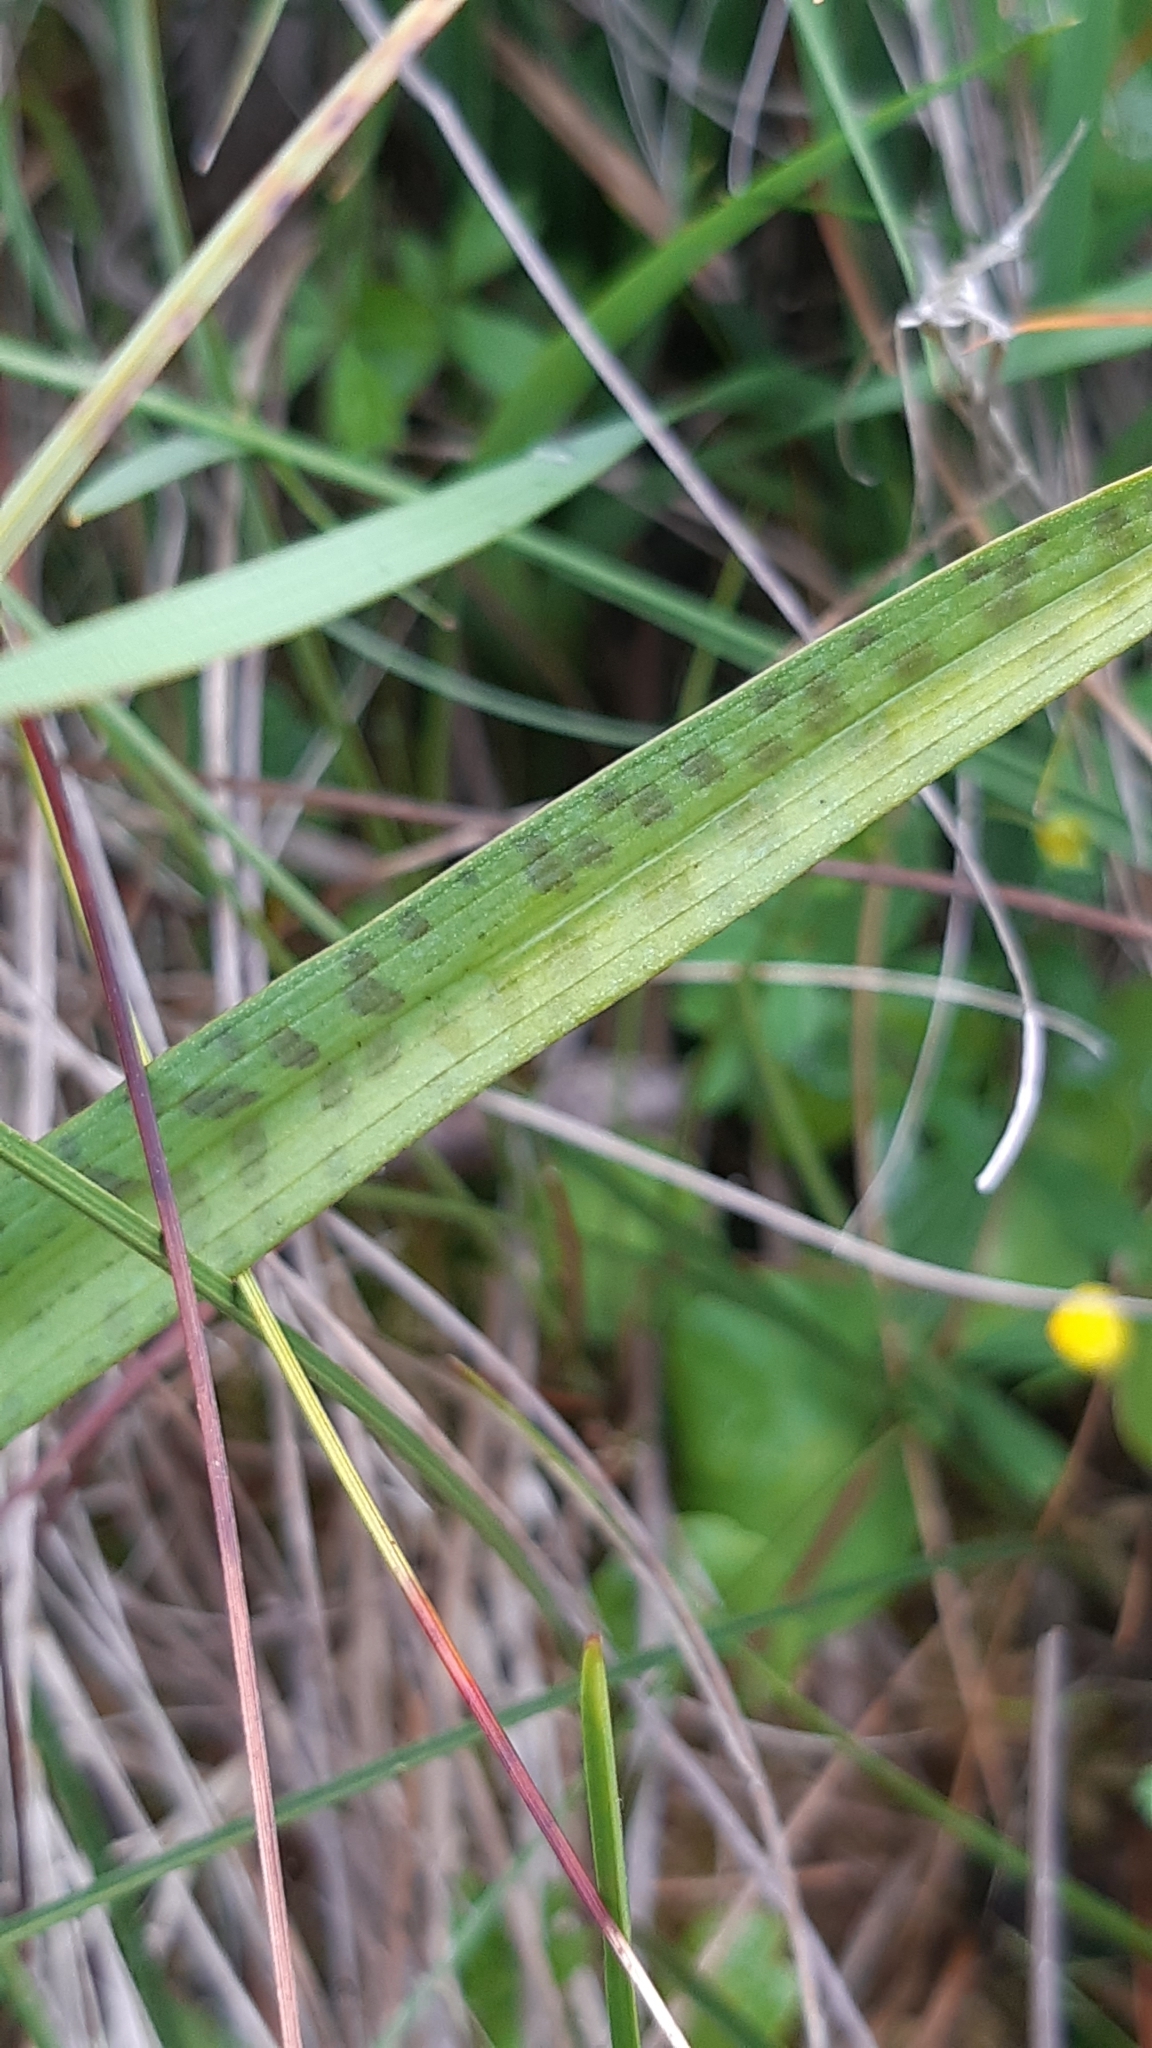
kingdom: Plantae
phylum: Tracheophyta
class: Liliopsida
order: Asparagales
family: Orchidaceae
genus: Dactylorhiza
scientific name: Dactylorhiza maculata
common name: Heath spotted-orchid
